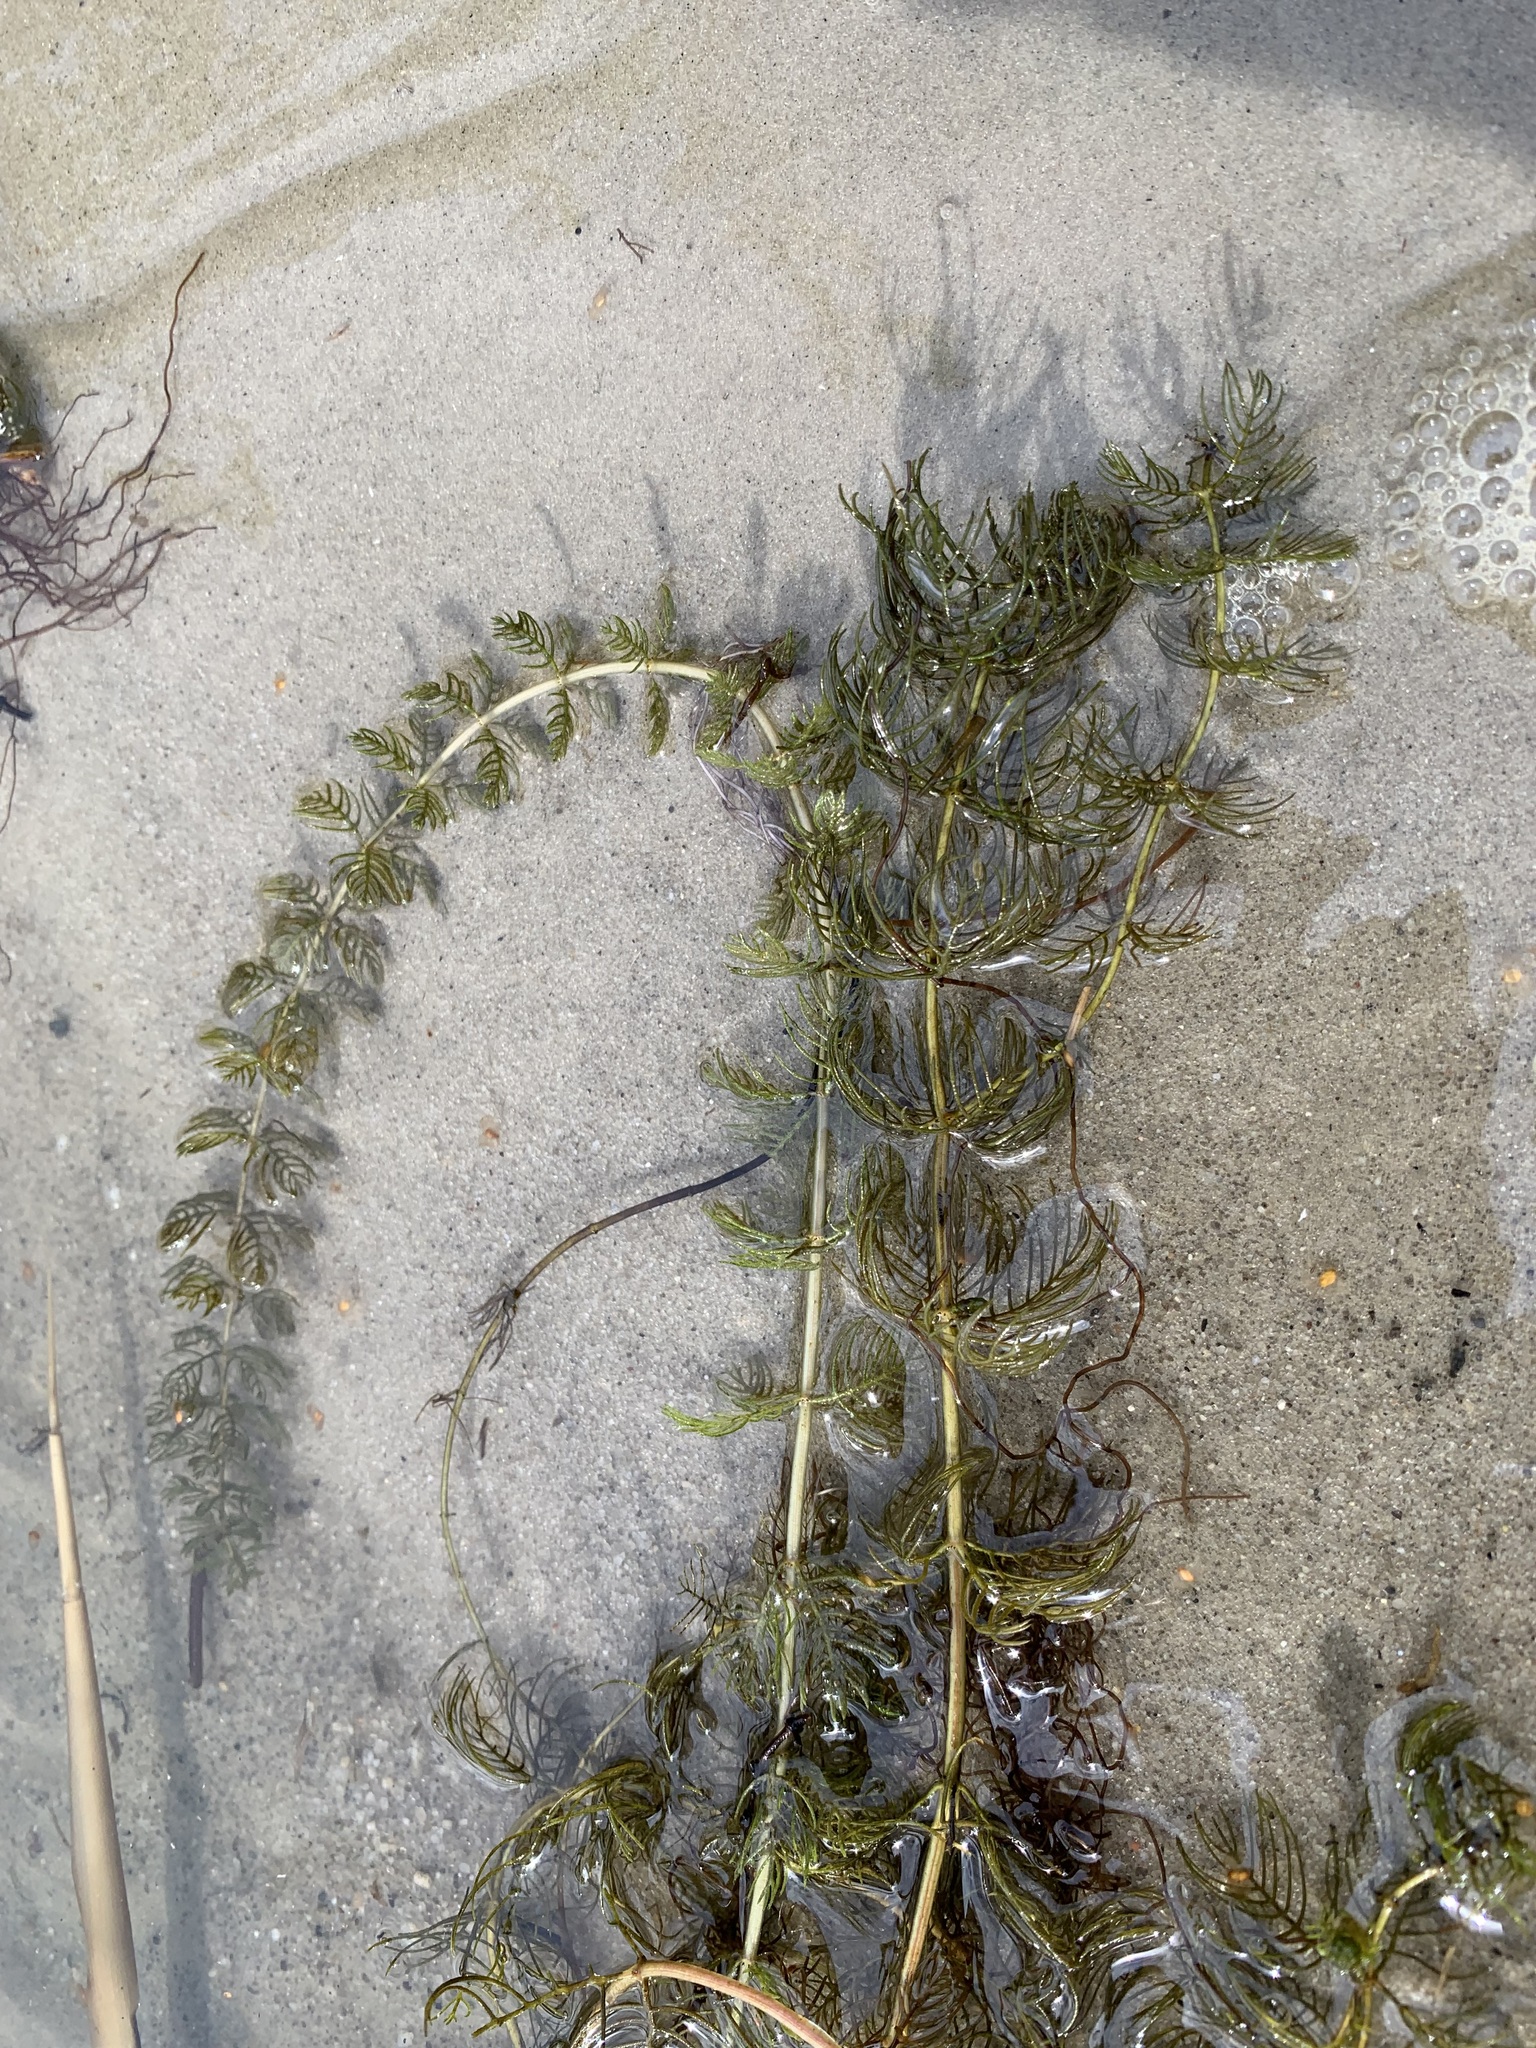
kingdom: Plantae
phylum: Tracheophyta
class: Magnoliopsida
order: Saxifragales
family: Haloragaceae
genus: Myriophyllum
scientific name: Myriophyllum sibiricum
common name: Siberian water-milfoil
